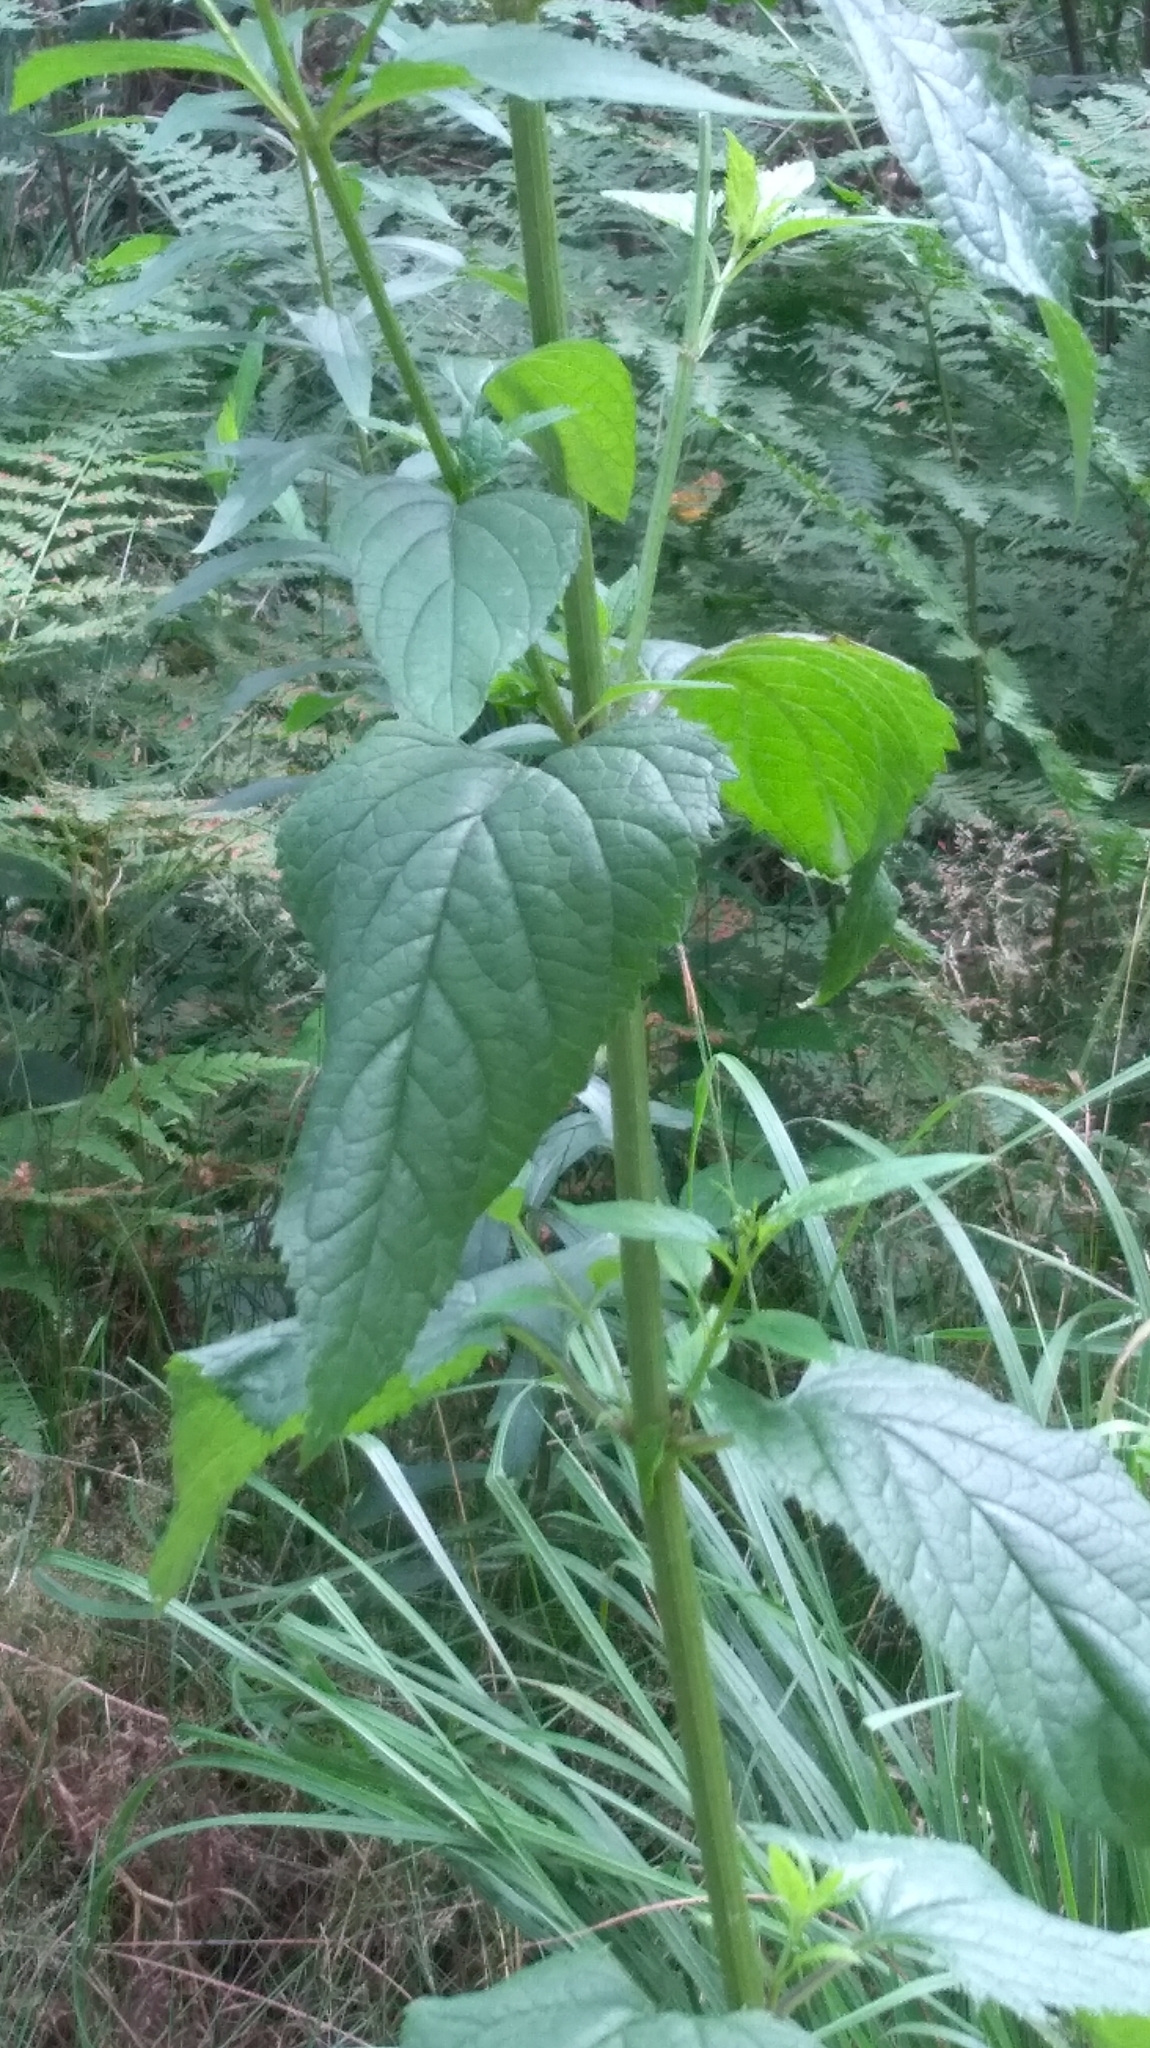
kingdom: Plantae
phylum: Tracheophyta
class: Magnoliopsida
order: Lamiales
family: Scrophulariaceae
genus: Scrophularia
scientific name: Scrophularia nodosa
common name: Common figwort
